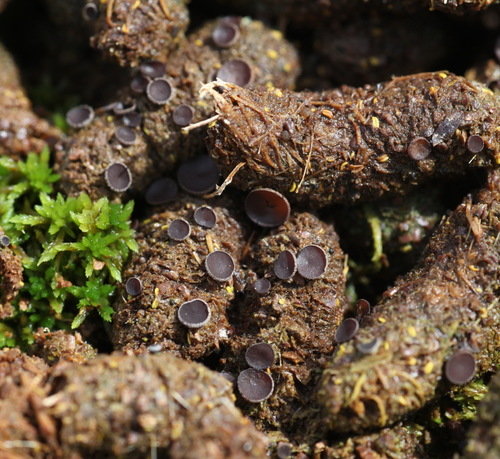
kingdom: Fungi
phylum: Ascomycota
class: Pezizomycetes
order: Pezizales
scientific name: Pezizales
